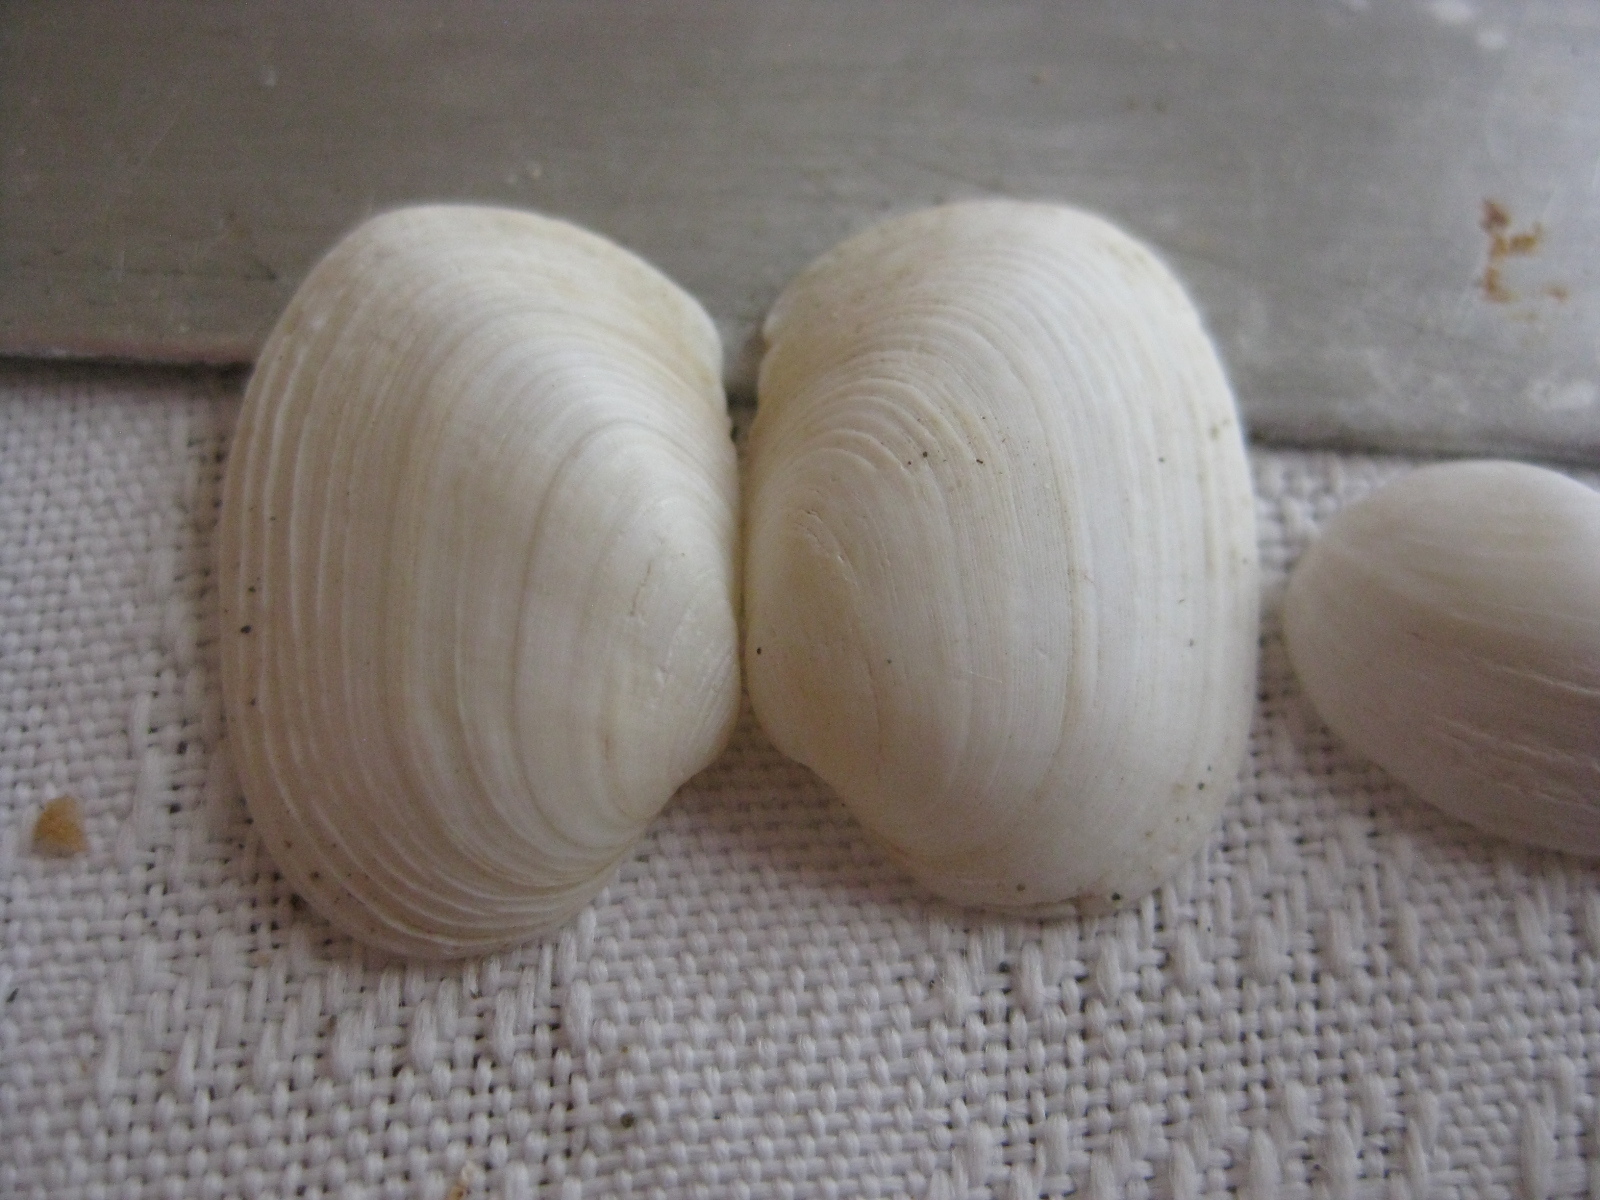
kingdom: Animalia
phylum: Mollusca
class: Bivalvia
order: Venerida
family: Veneridae
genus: Venerupis
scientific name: Venerupis largillierti
